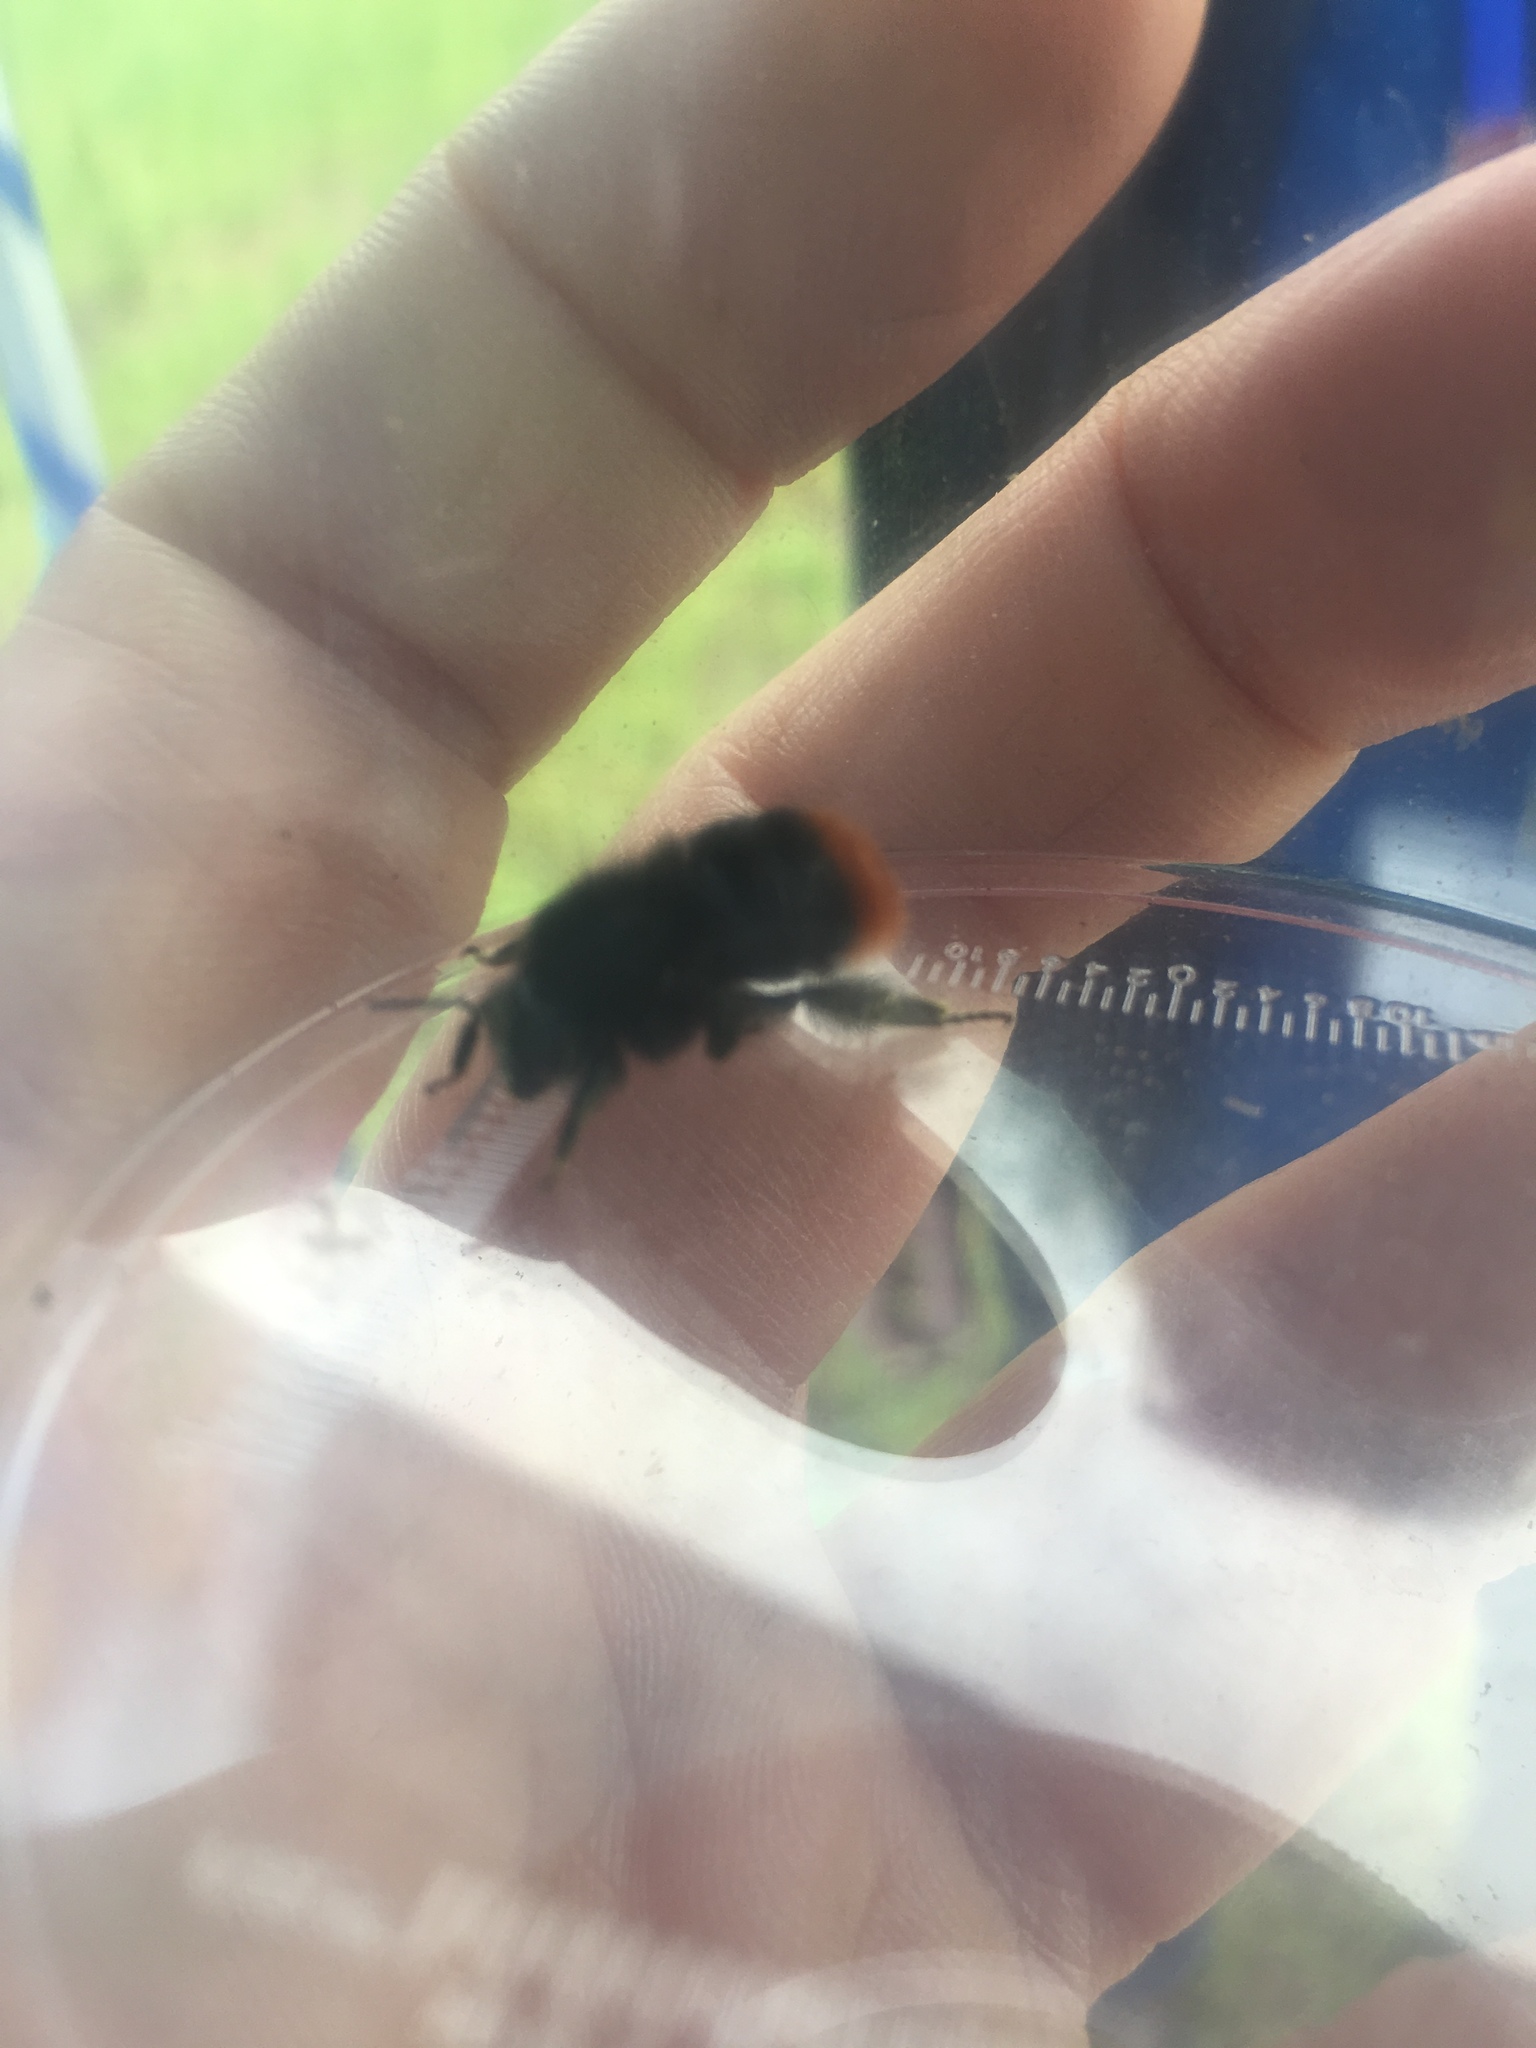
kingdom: Animalia
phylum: Arthropoda
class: Insecta
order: Hymenoptera
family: Apidae
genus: Bombus
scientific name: Bombus lapidarius
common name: Large red-tailed humble-bee
